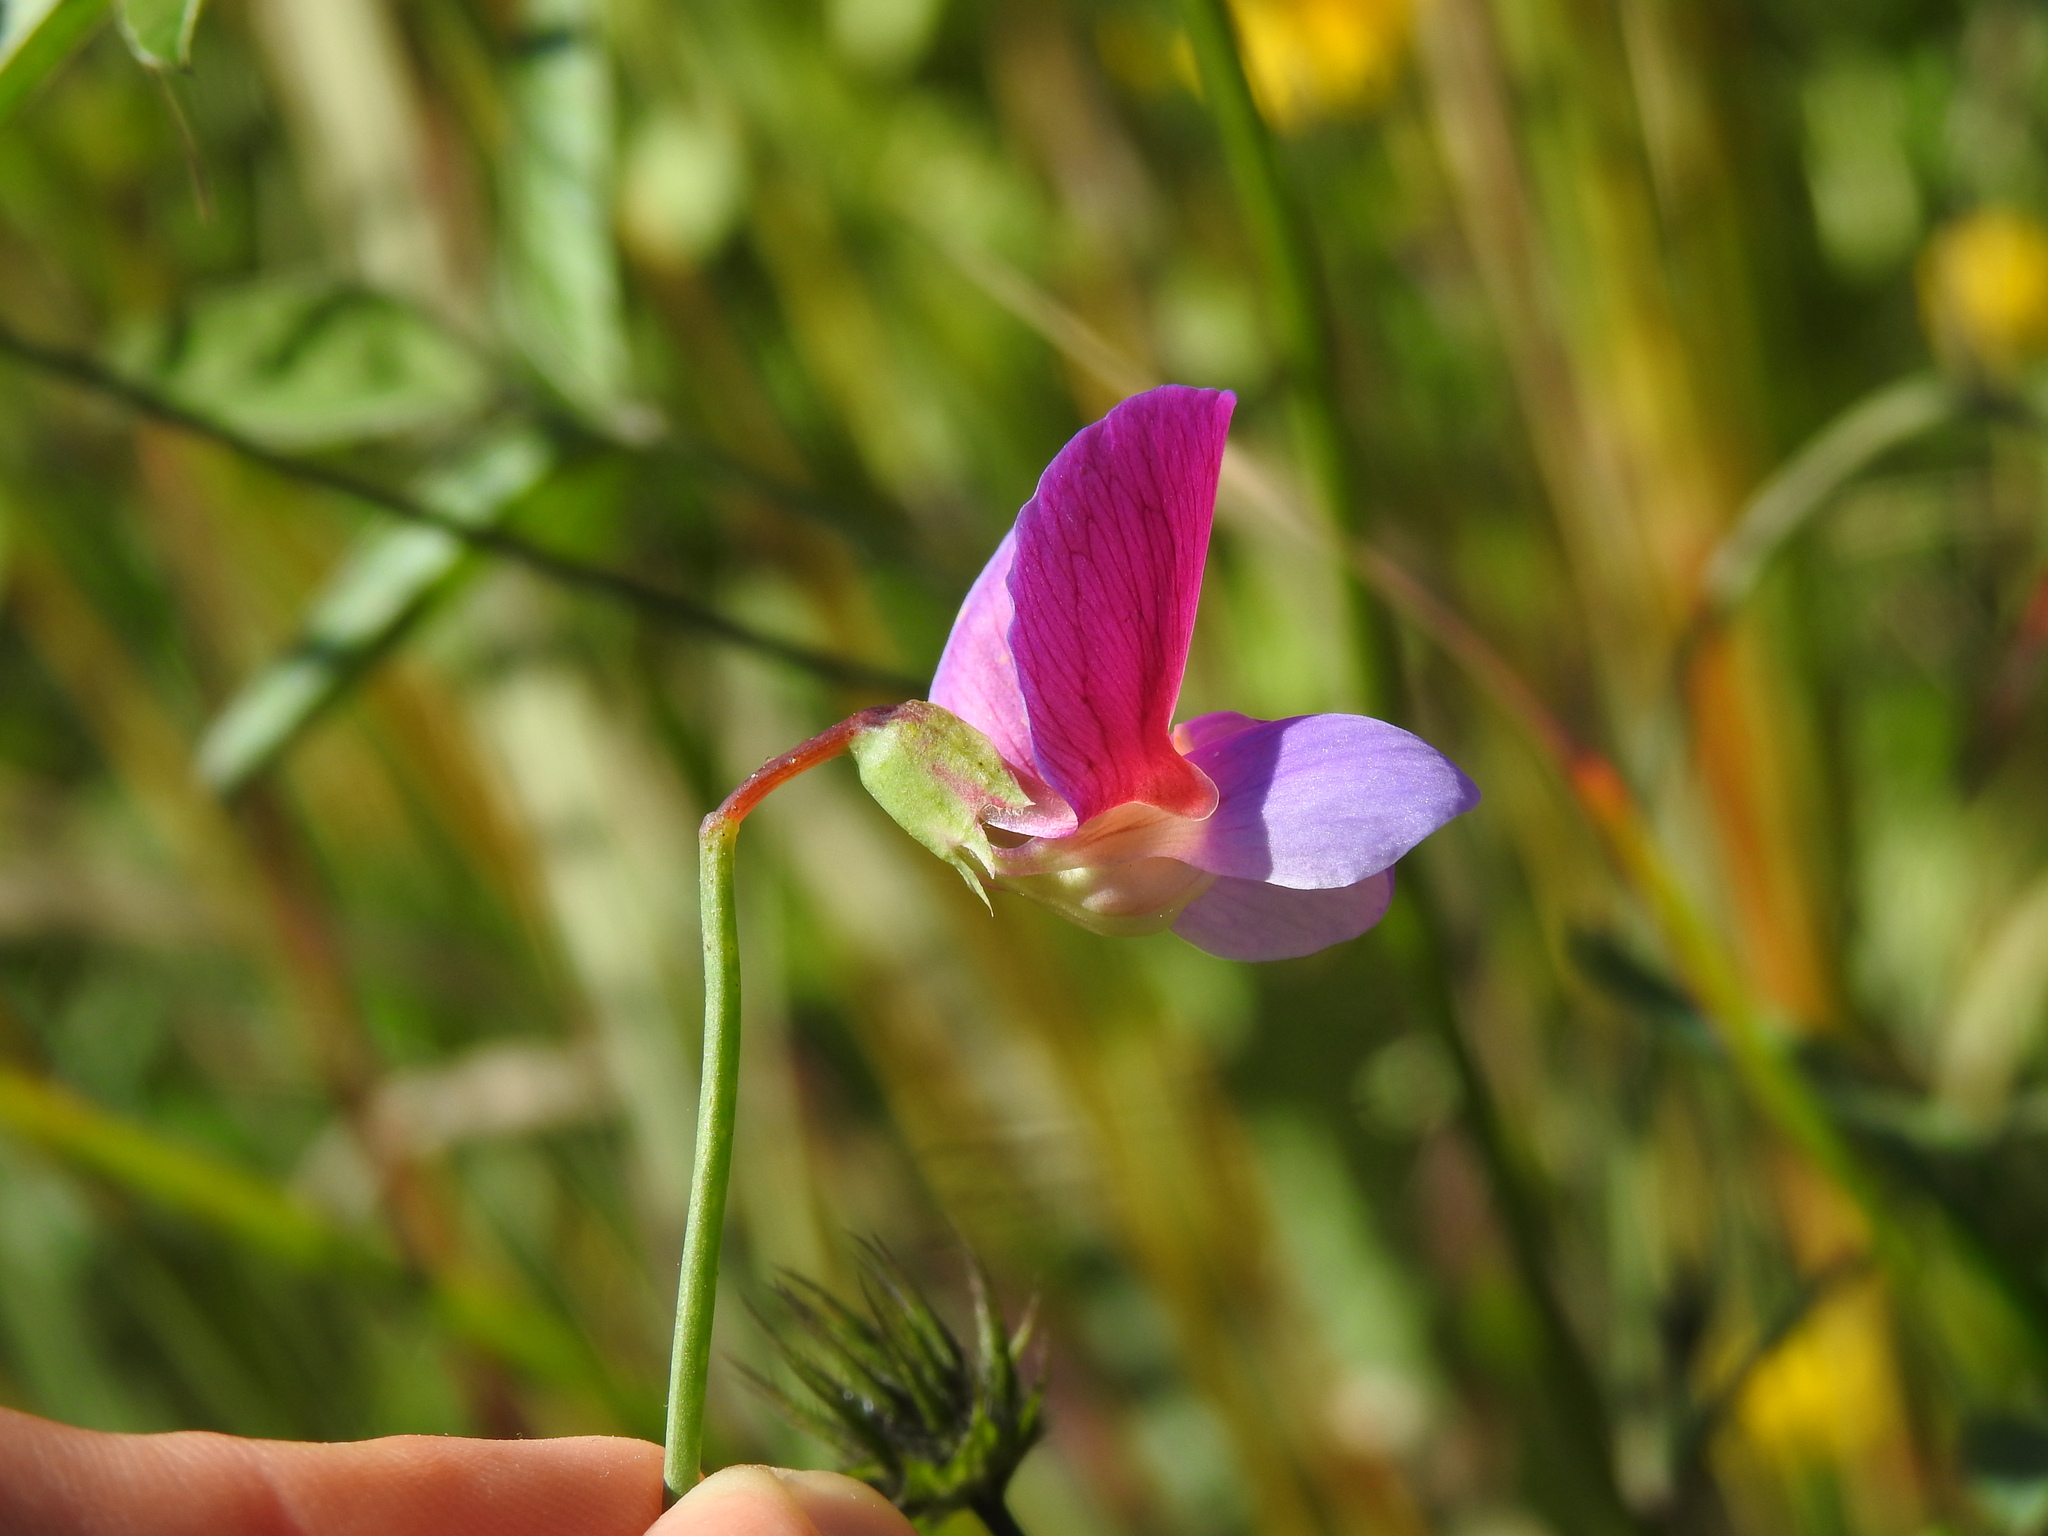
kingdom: Plantae
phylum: Tracheophyta
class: Magnoliopsida
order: Fabales
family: Fabaceae
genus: Lathyrus
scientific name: Lathyrus clymenum
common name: Spanish vetchling
